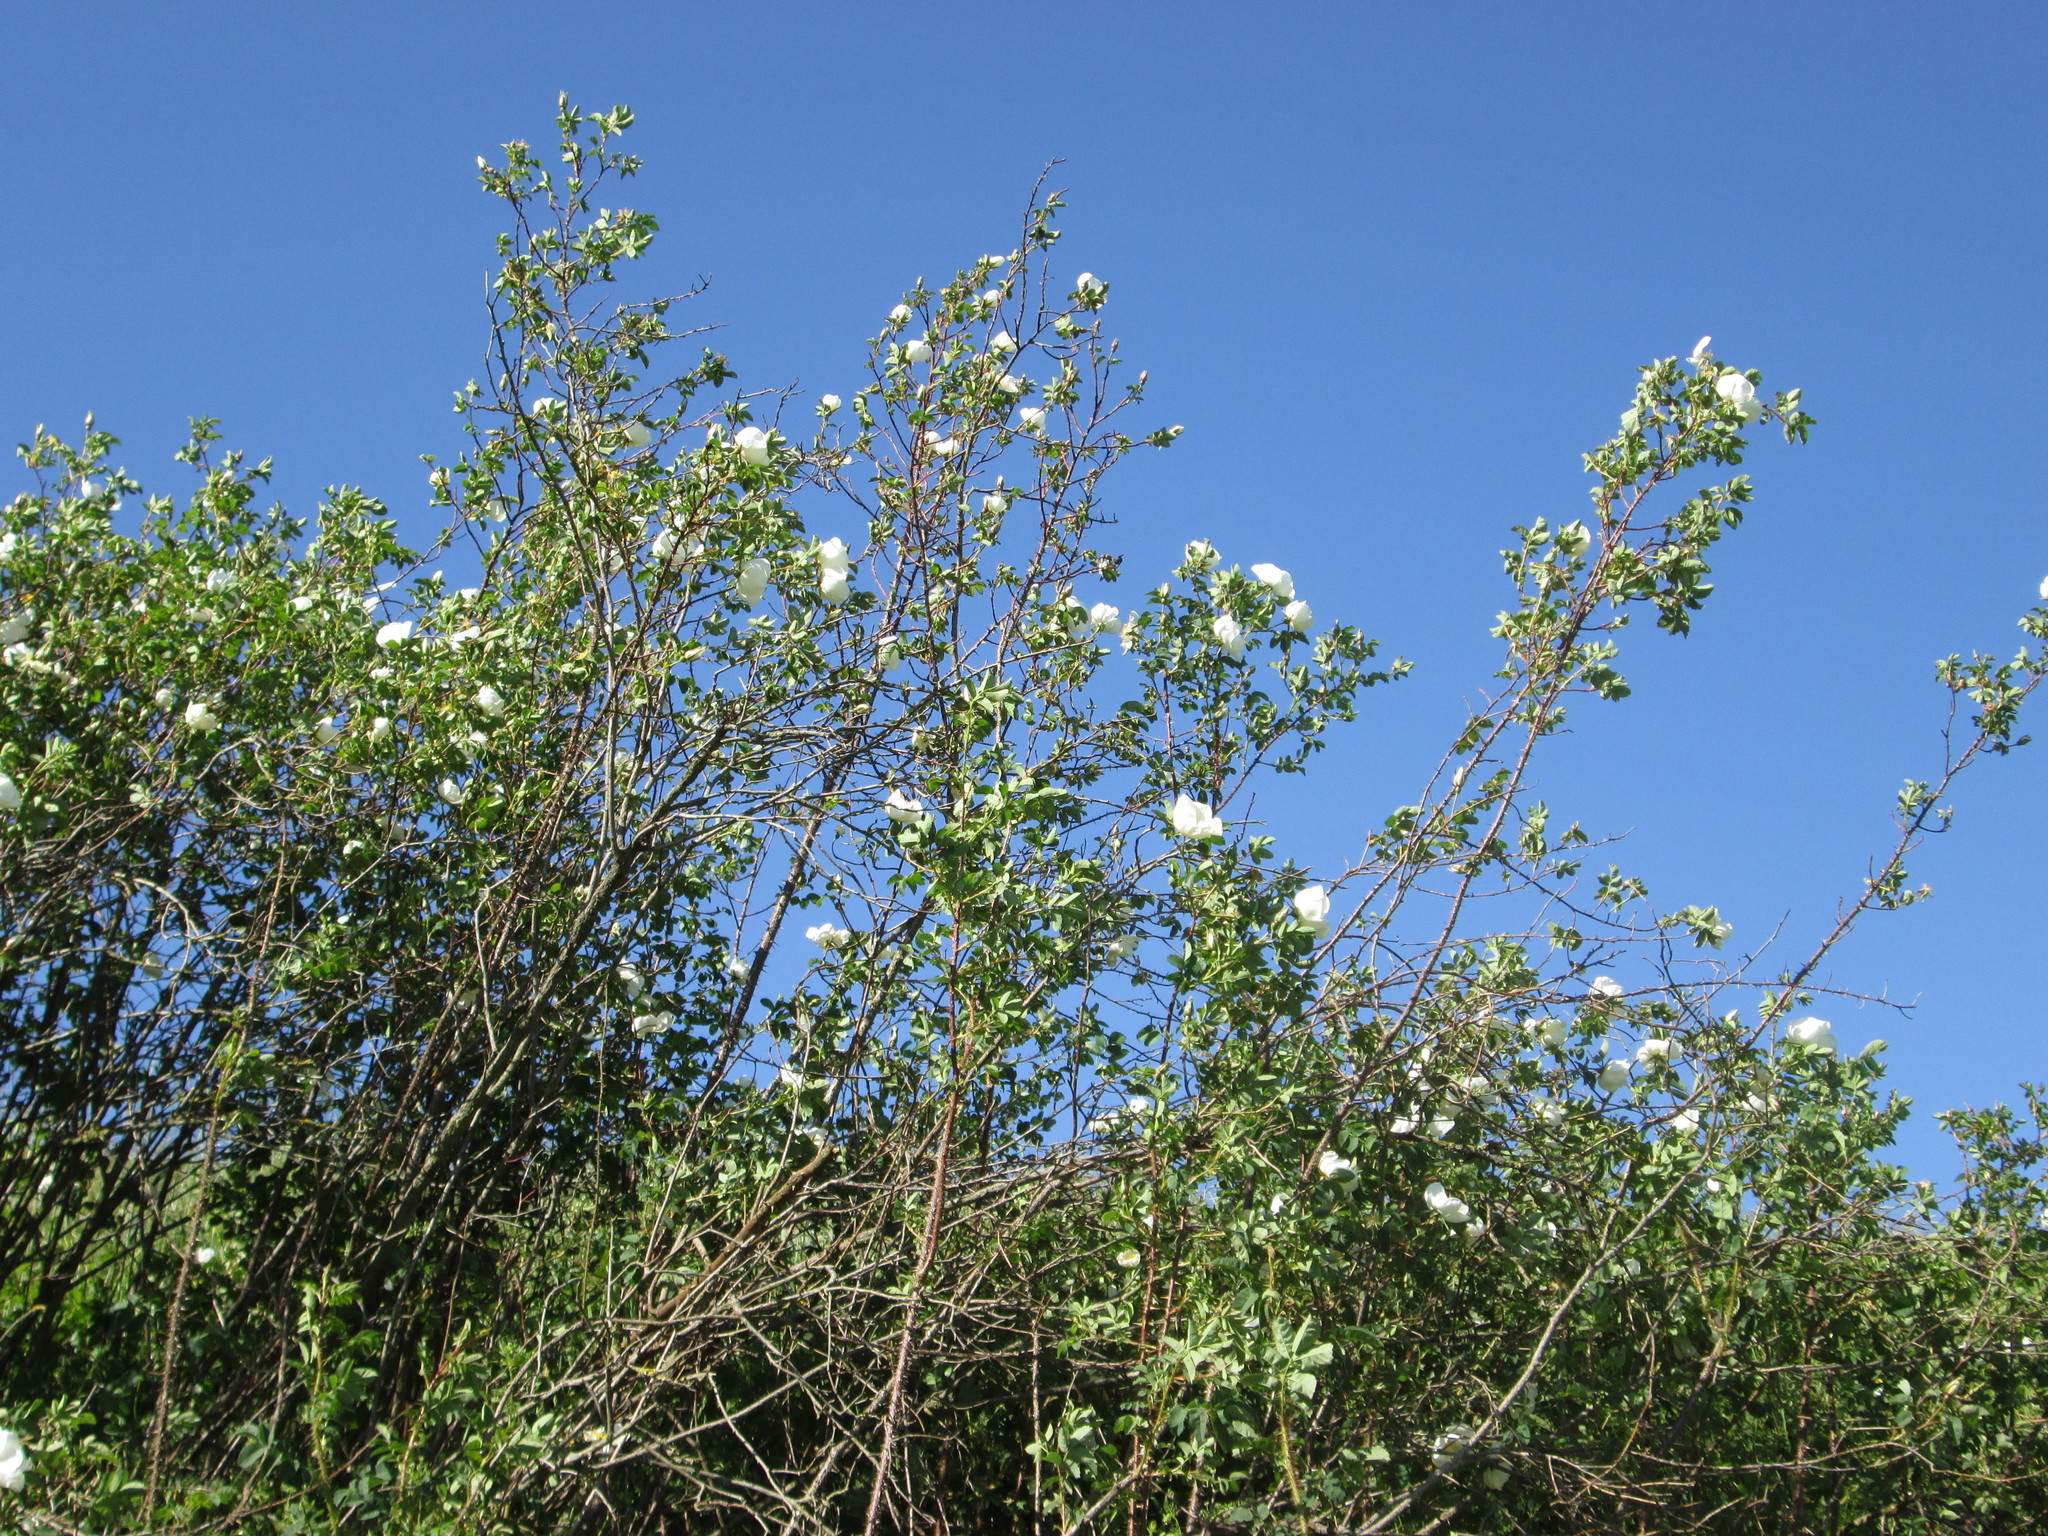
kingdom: Plantae
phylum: Tracheophyta
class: Magnoliopsida
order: Rosales
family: Rosaceae
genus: Rosa
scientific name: Rosa spinosissima
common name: Burnet rose
